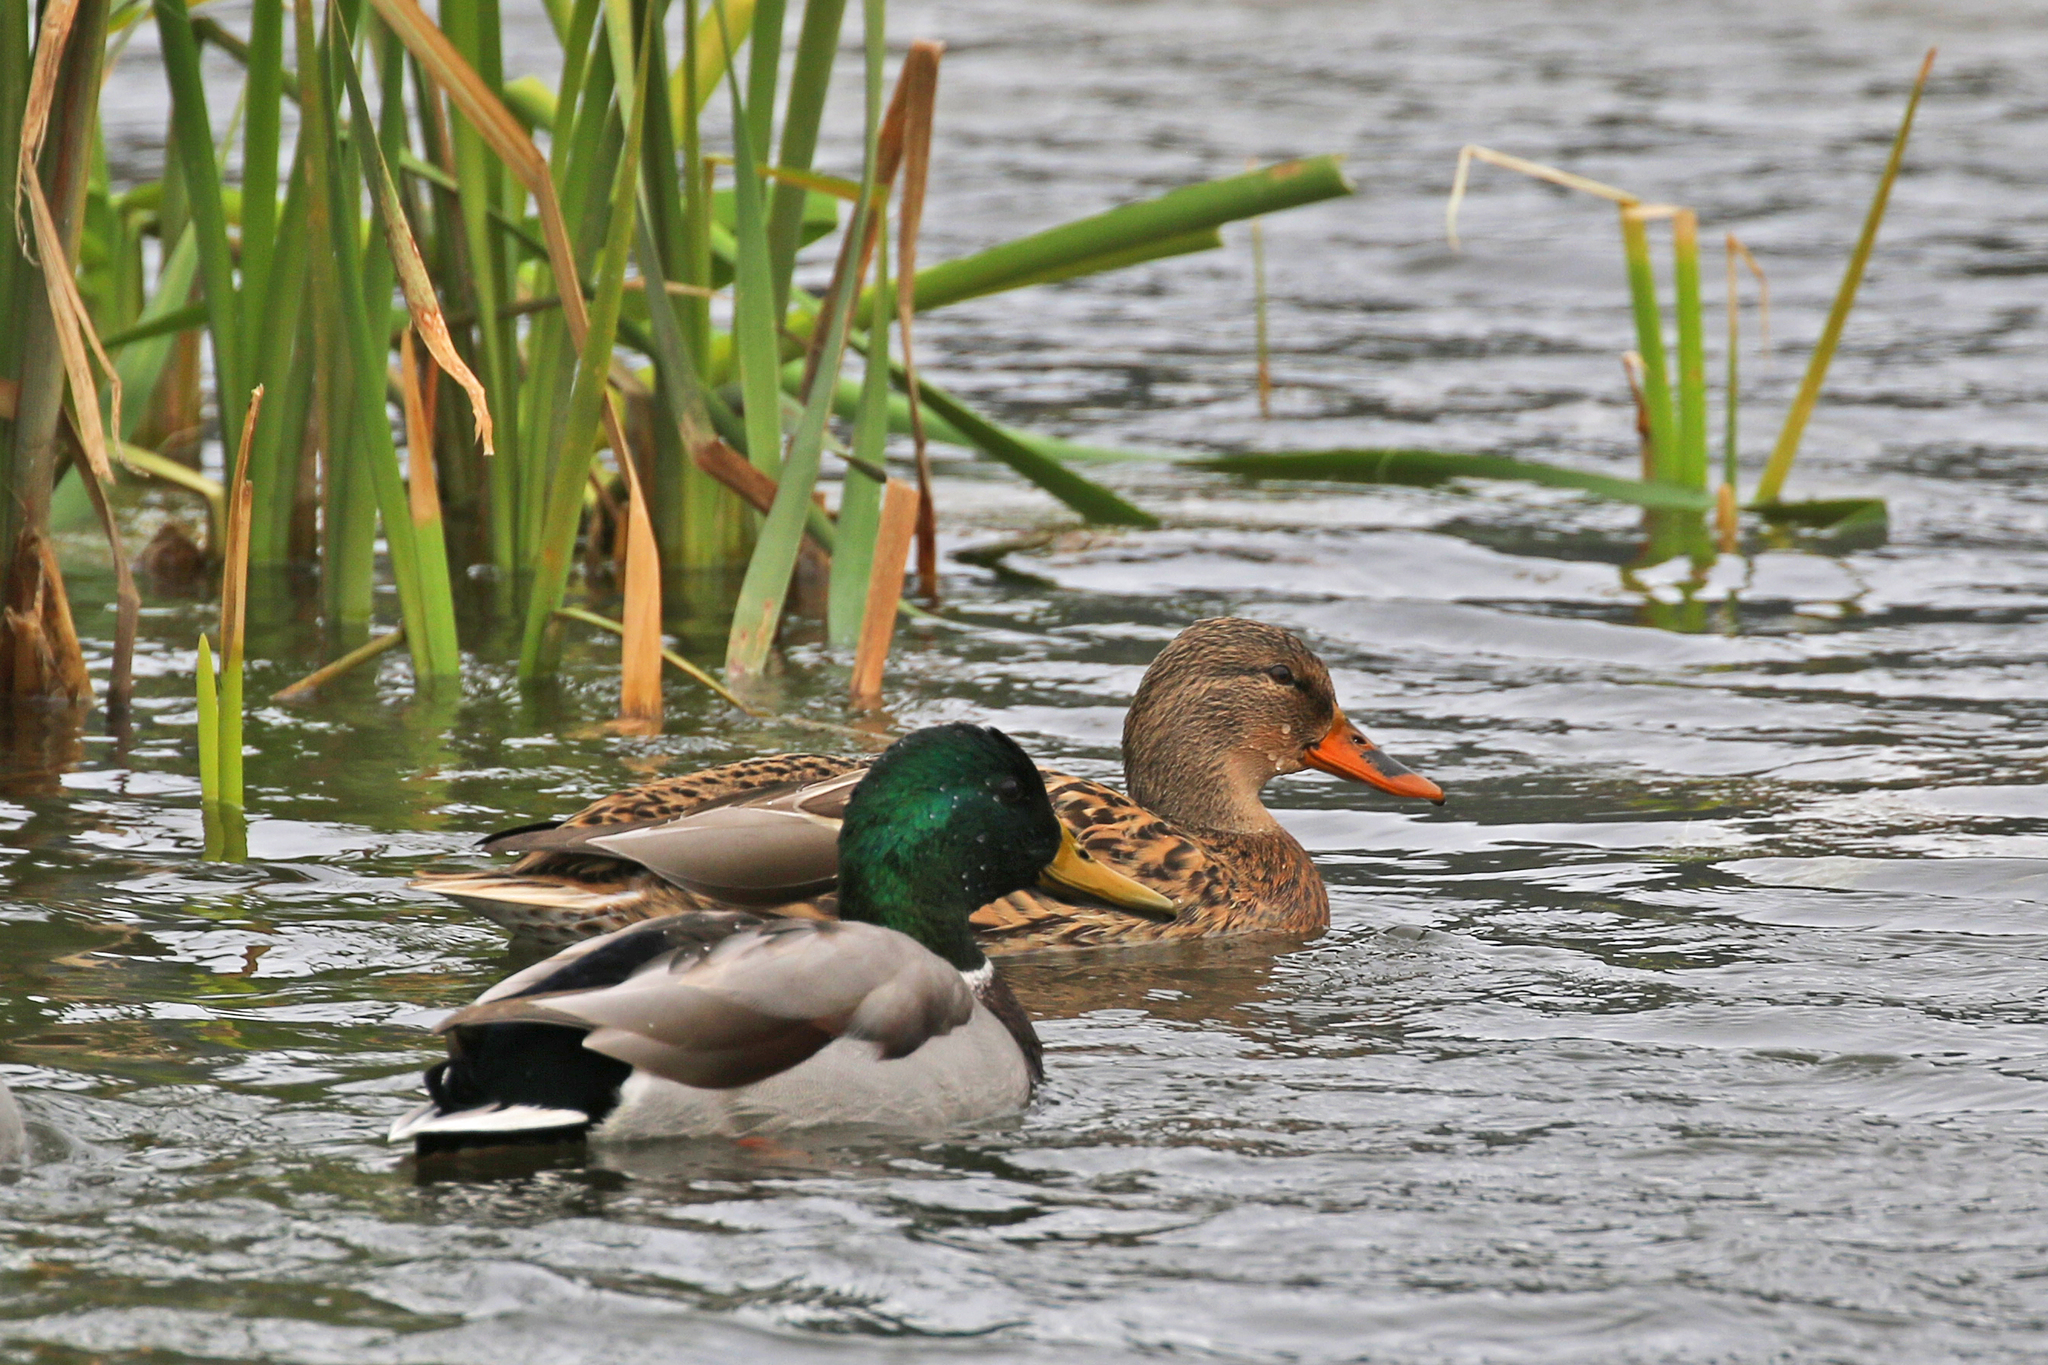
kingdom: Animalia
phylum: Chordata
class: Aves
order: Anseriformes
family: Anatidae
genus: Anas
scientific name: Anas platyrhynchos
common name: Mallard
